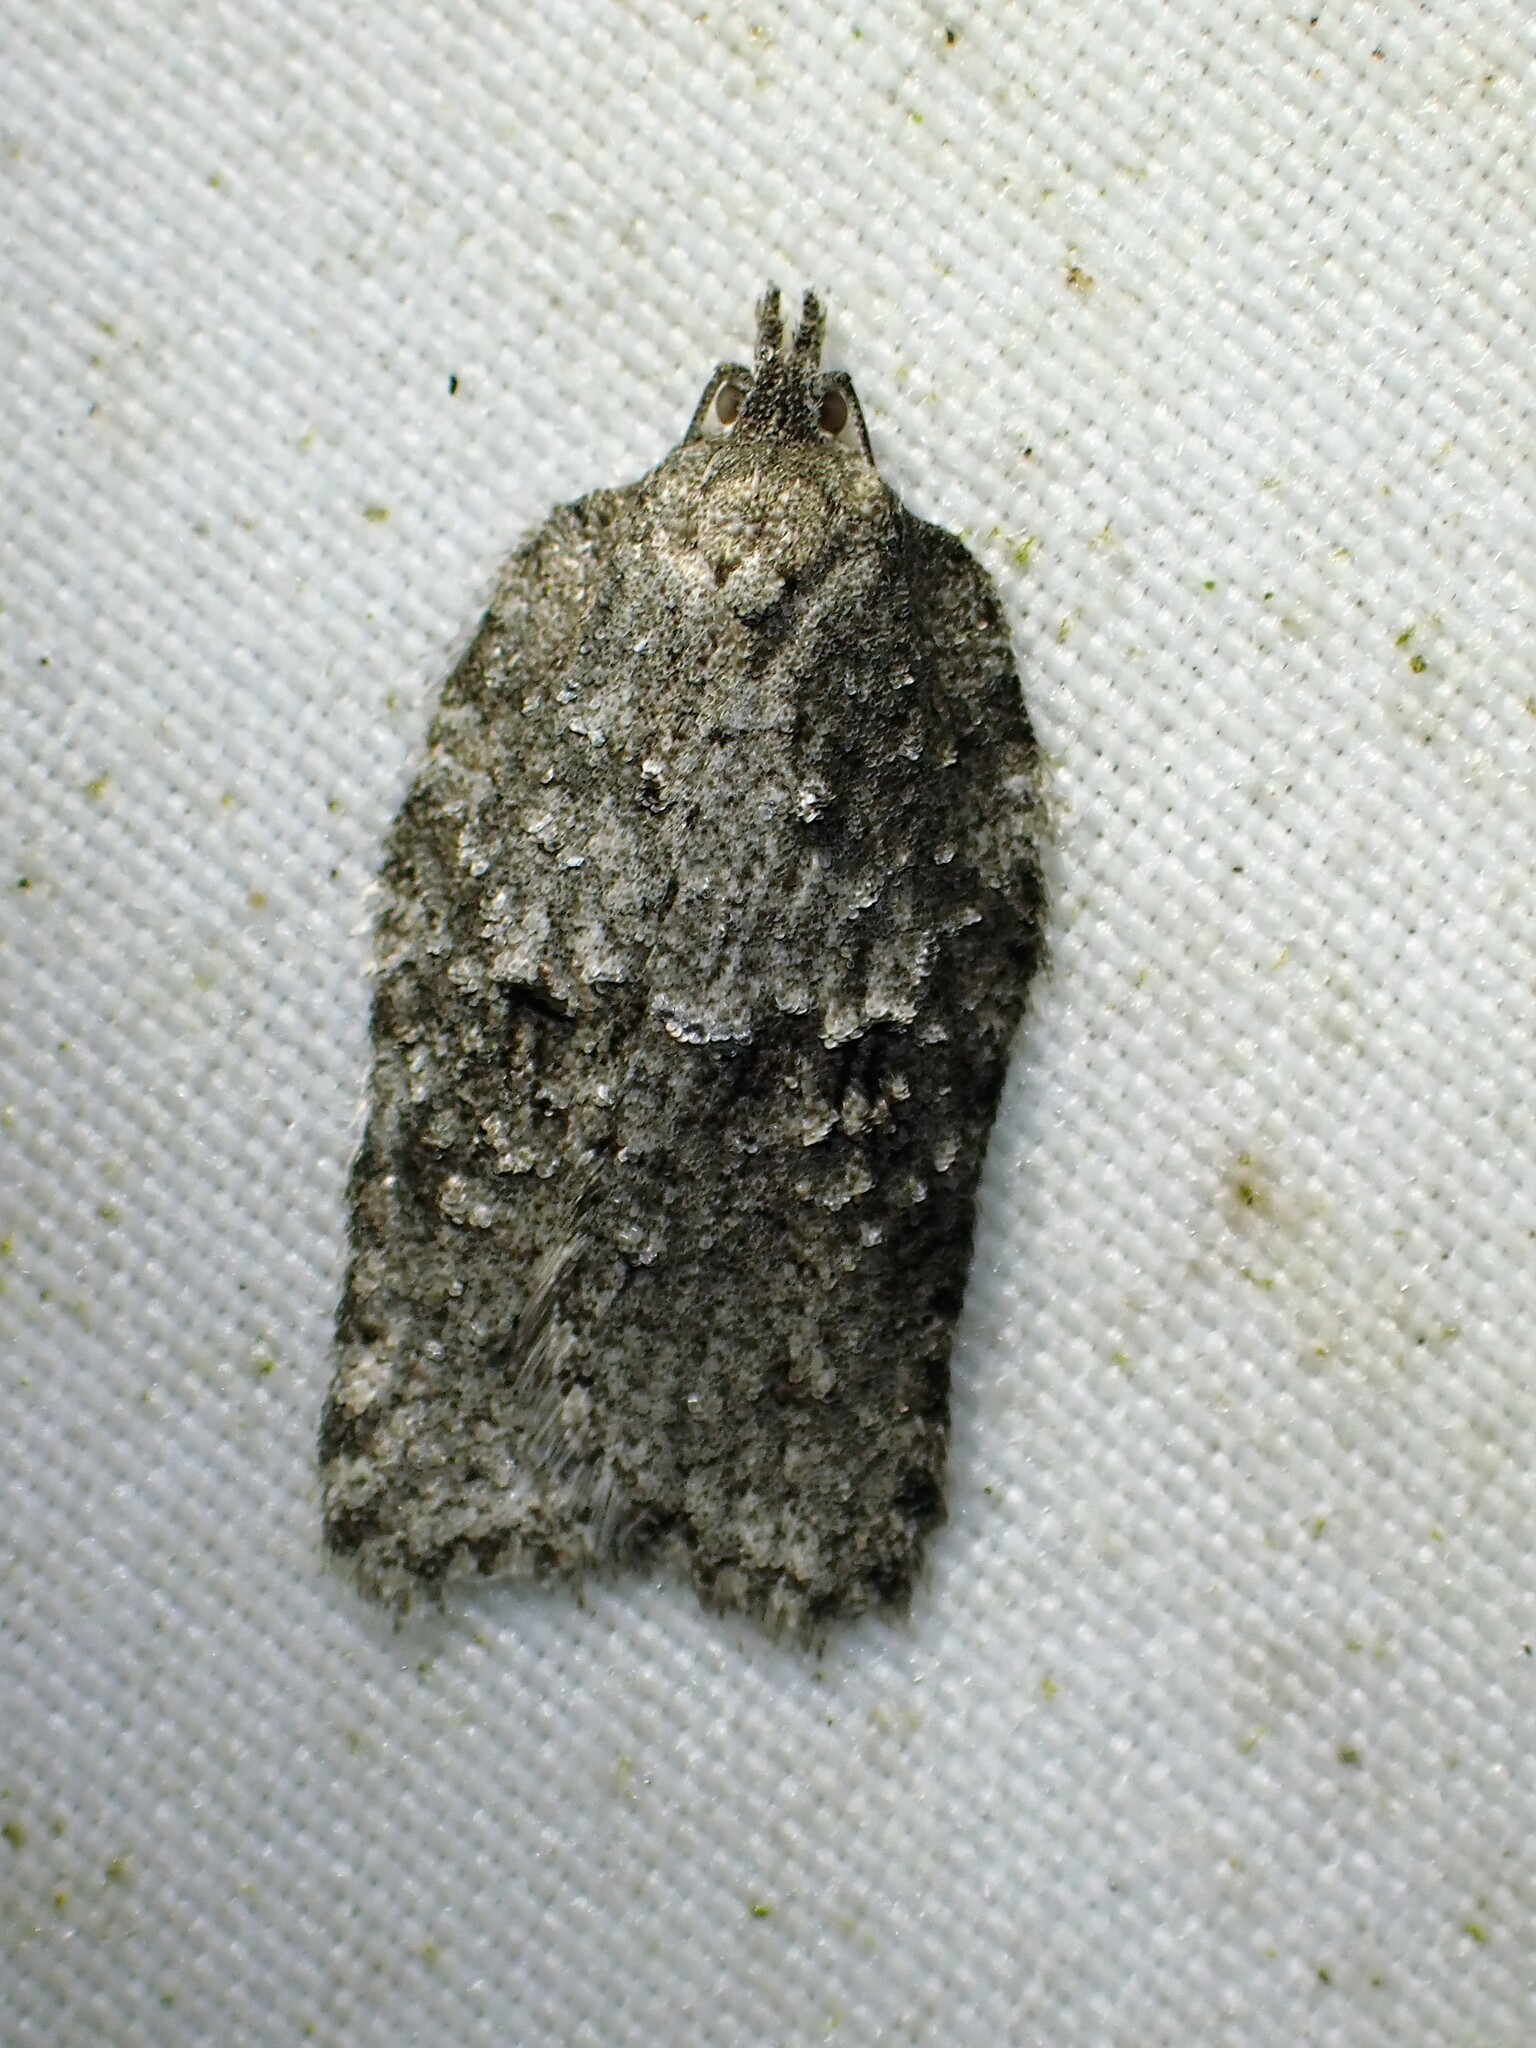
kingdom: Animalia
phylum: Arthropoda
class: Insecta
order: Lepidoptera
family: Tortricidae
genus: Acleris
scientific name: Acleris nigrolinea
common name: Black-lined acleris
